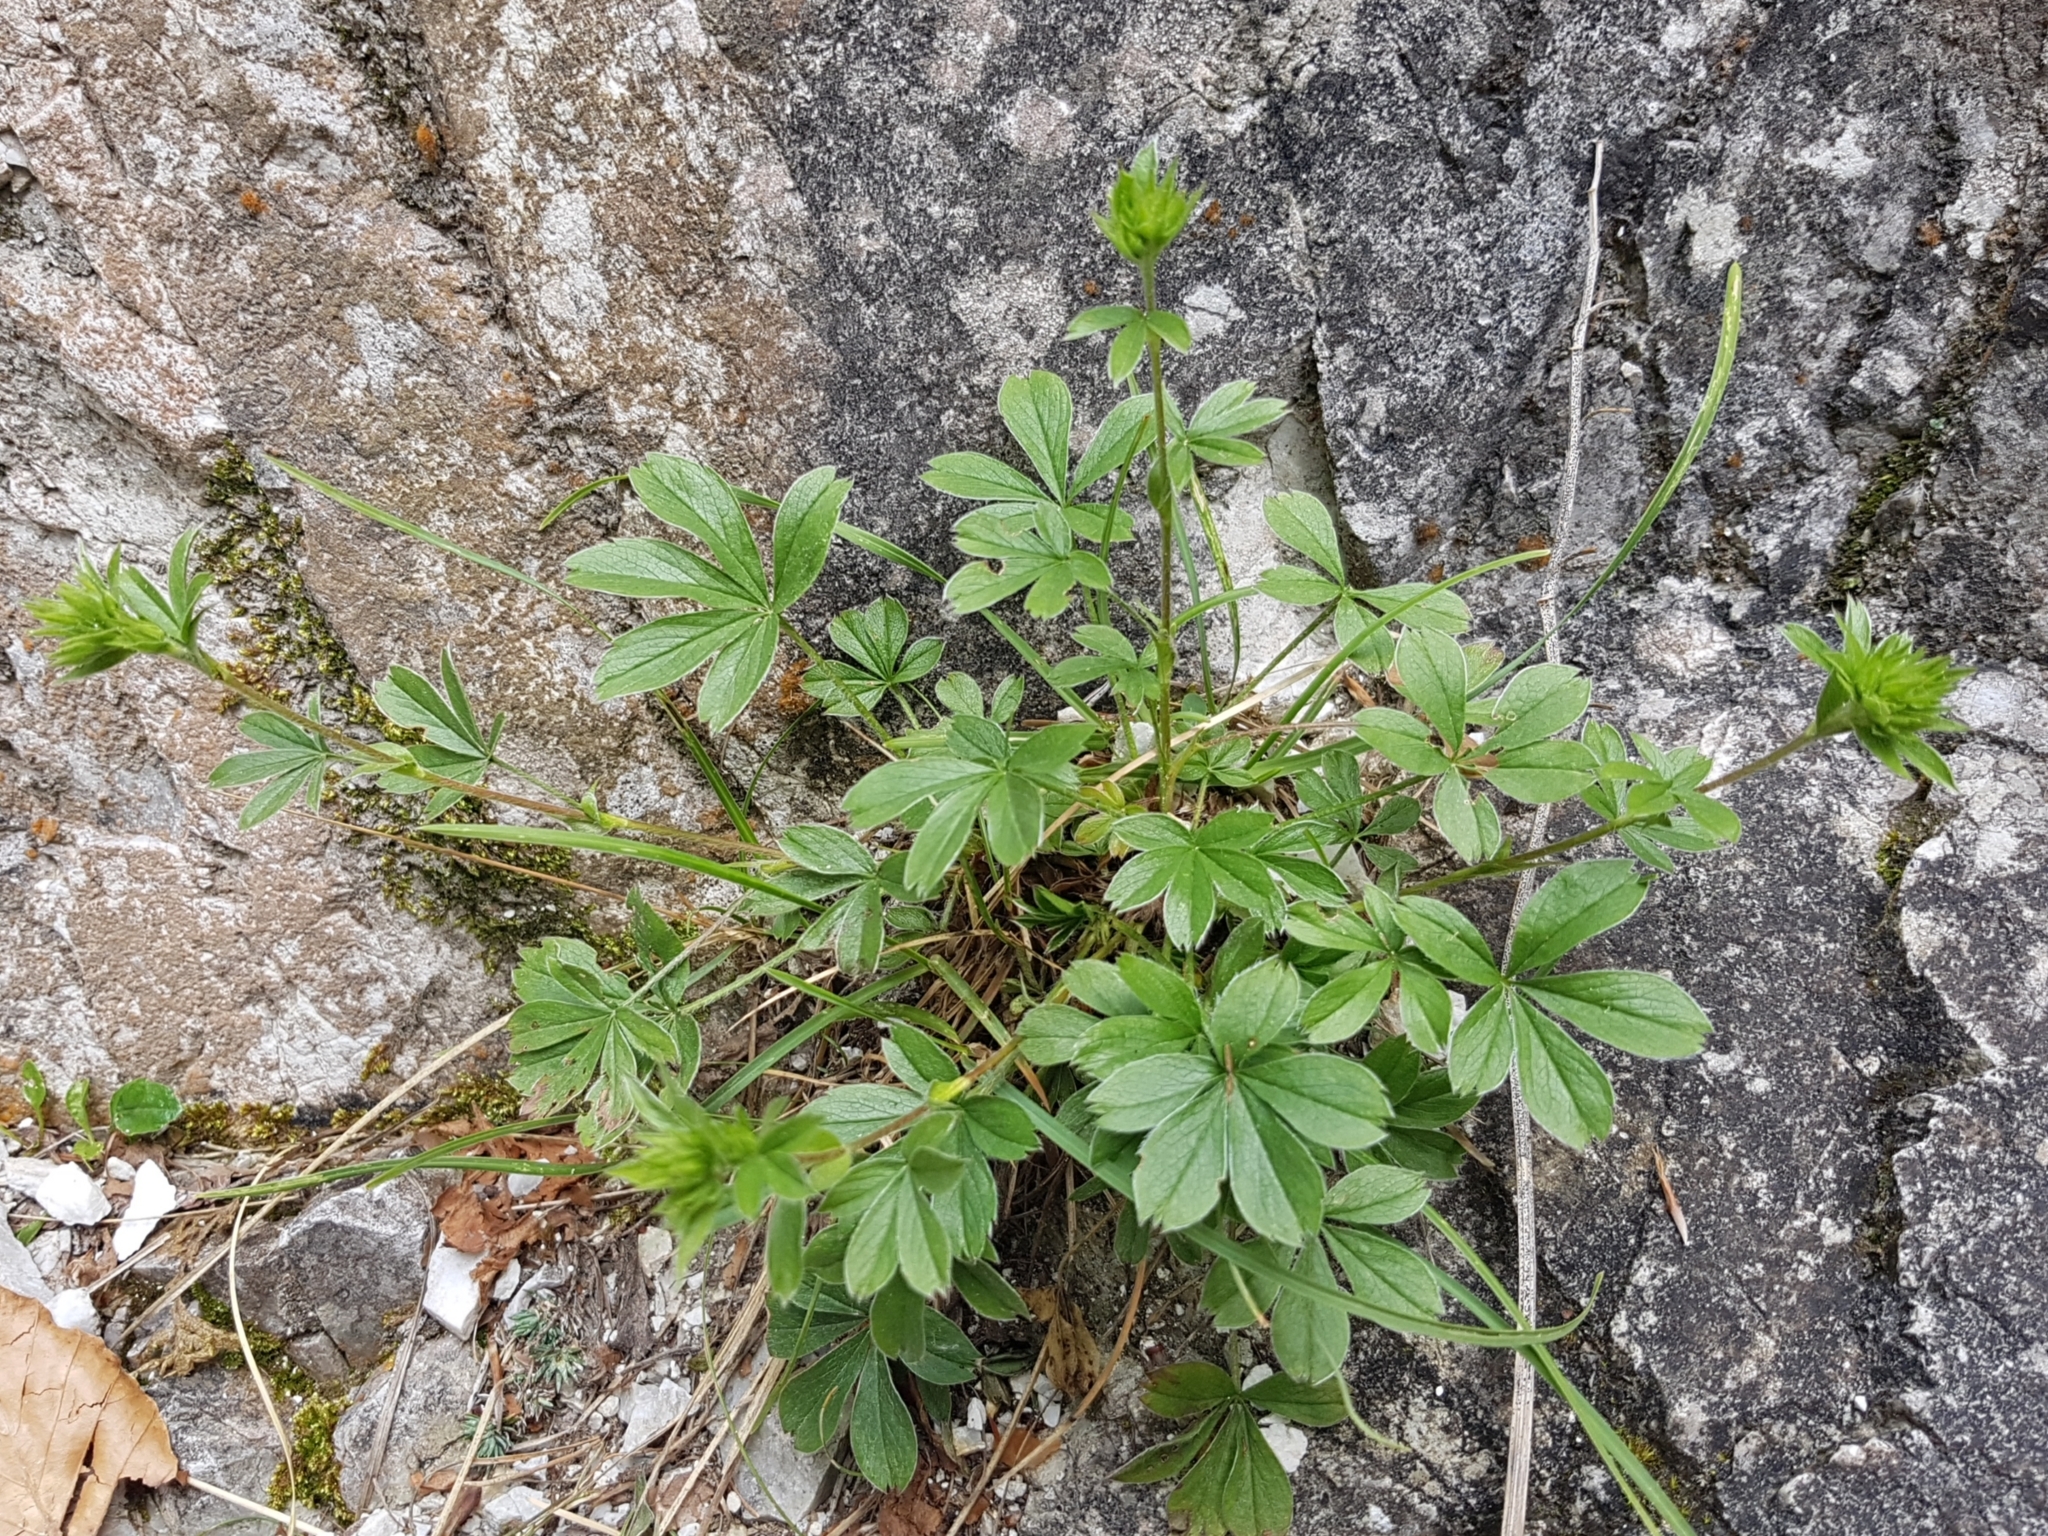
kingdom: Plantae
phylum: Tracheophyta
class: Magnoliopsida
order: Rosales
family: Rosaceae
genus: Potentilla
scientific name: Potentilla caulescens
